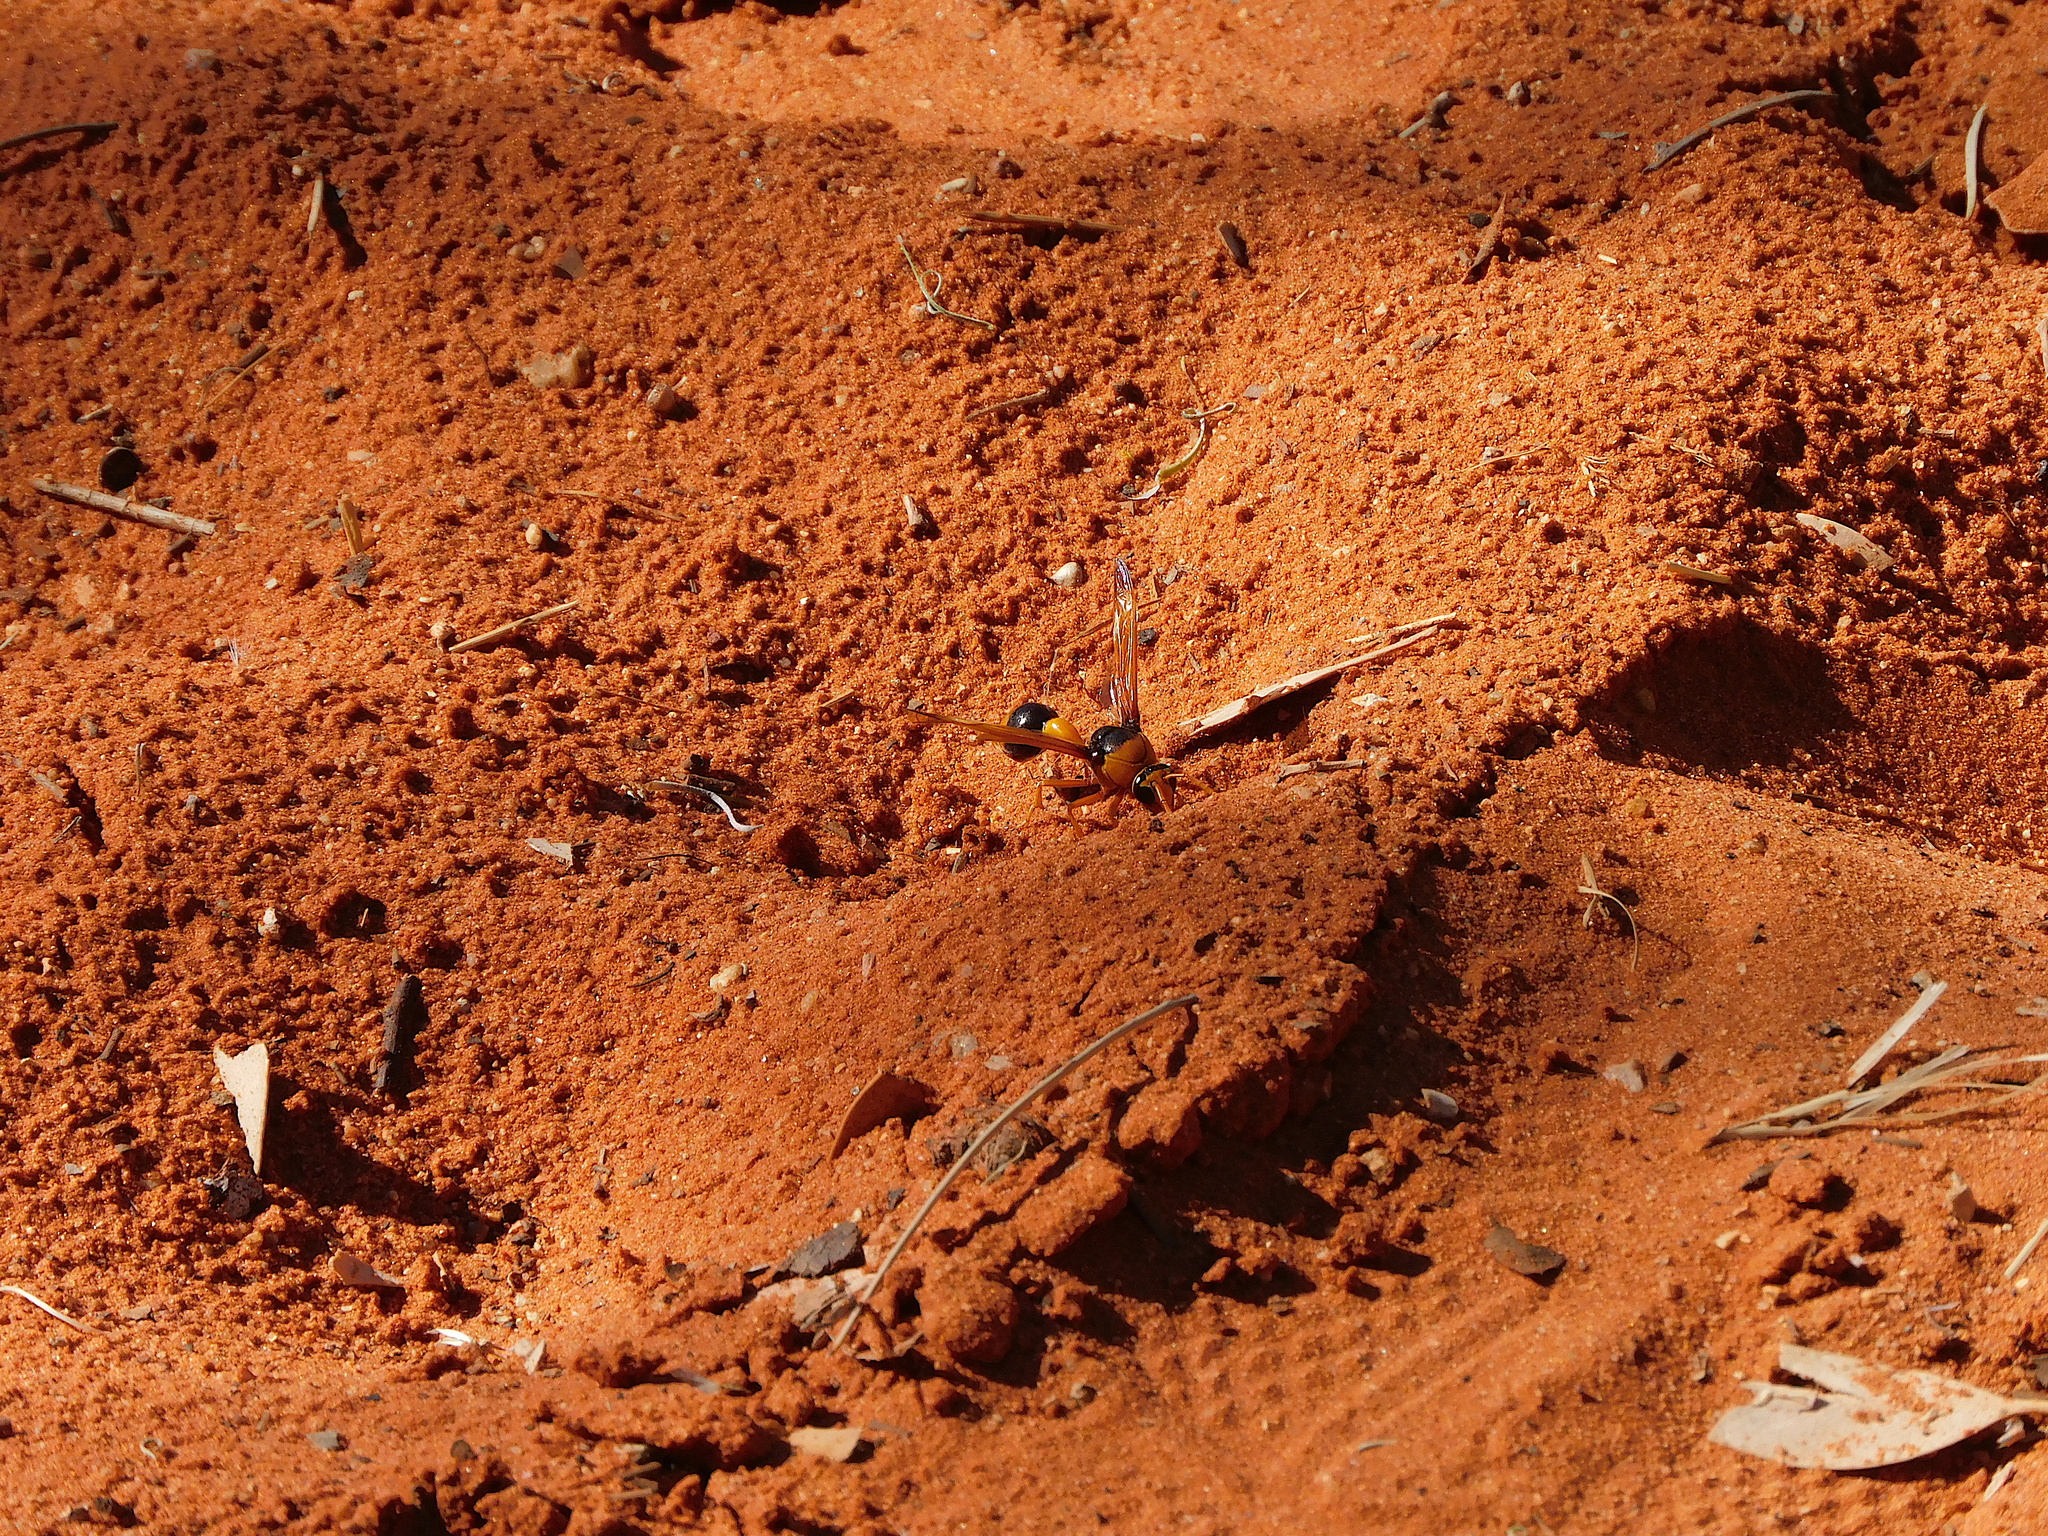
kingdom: Animalia
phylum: Arthropoda
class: Insecta
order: Hymenoptera
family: Eumenidae
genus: Delta
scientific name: Delta latreillei
